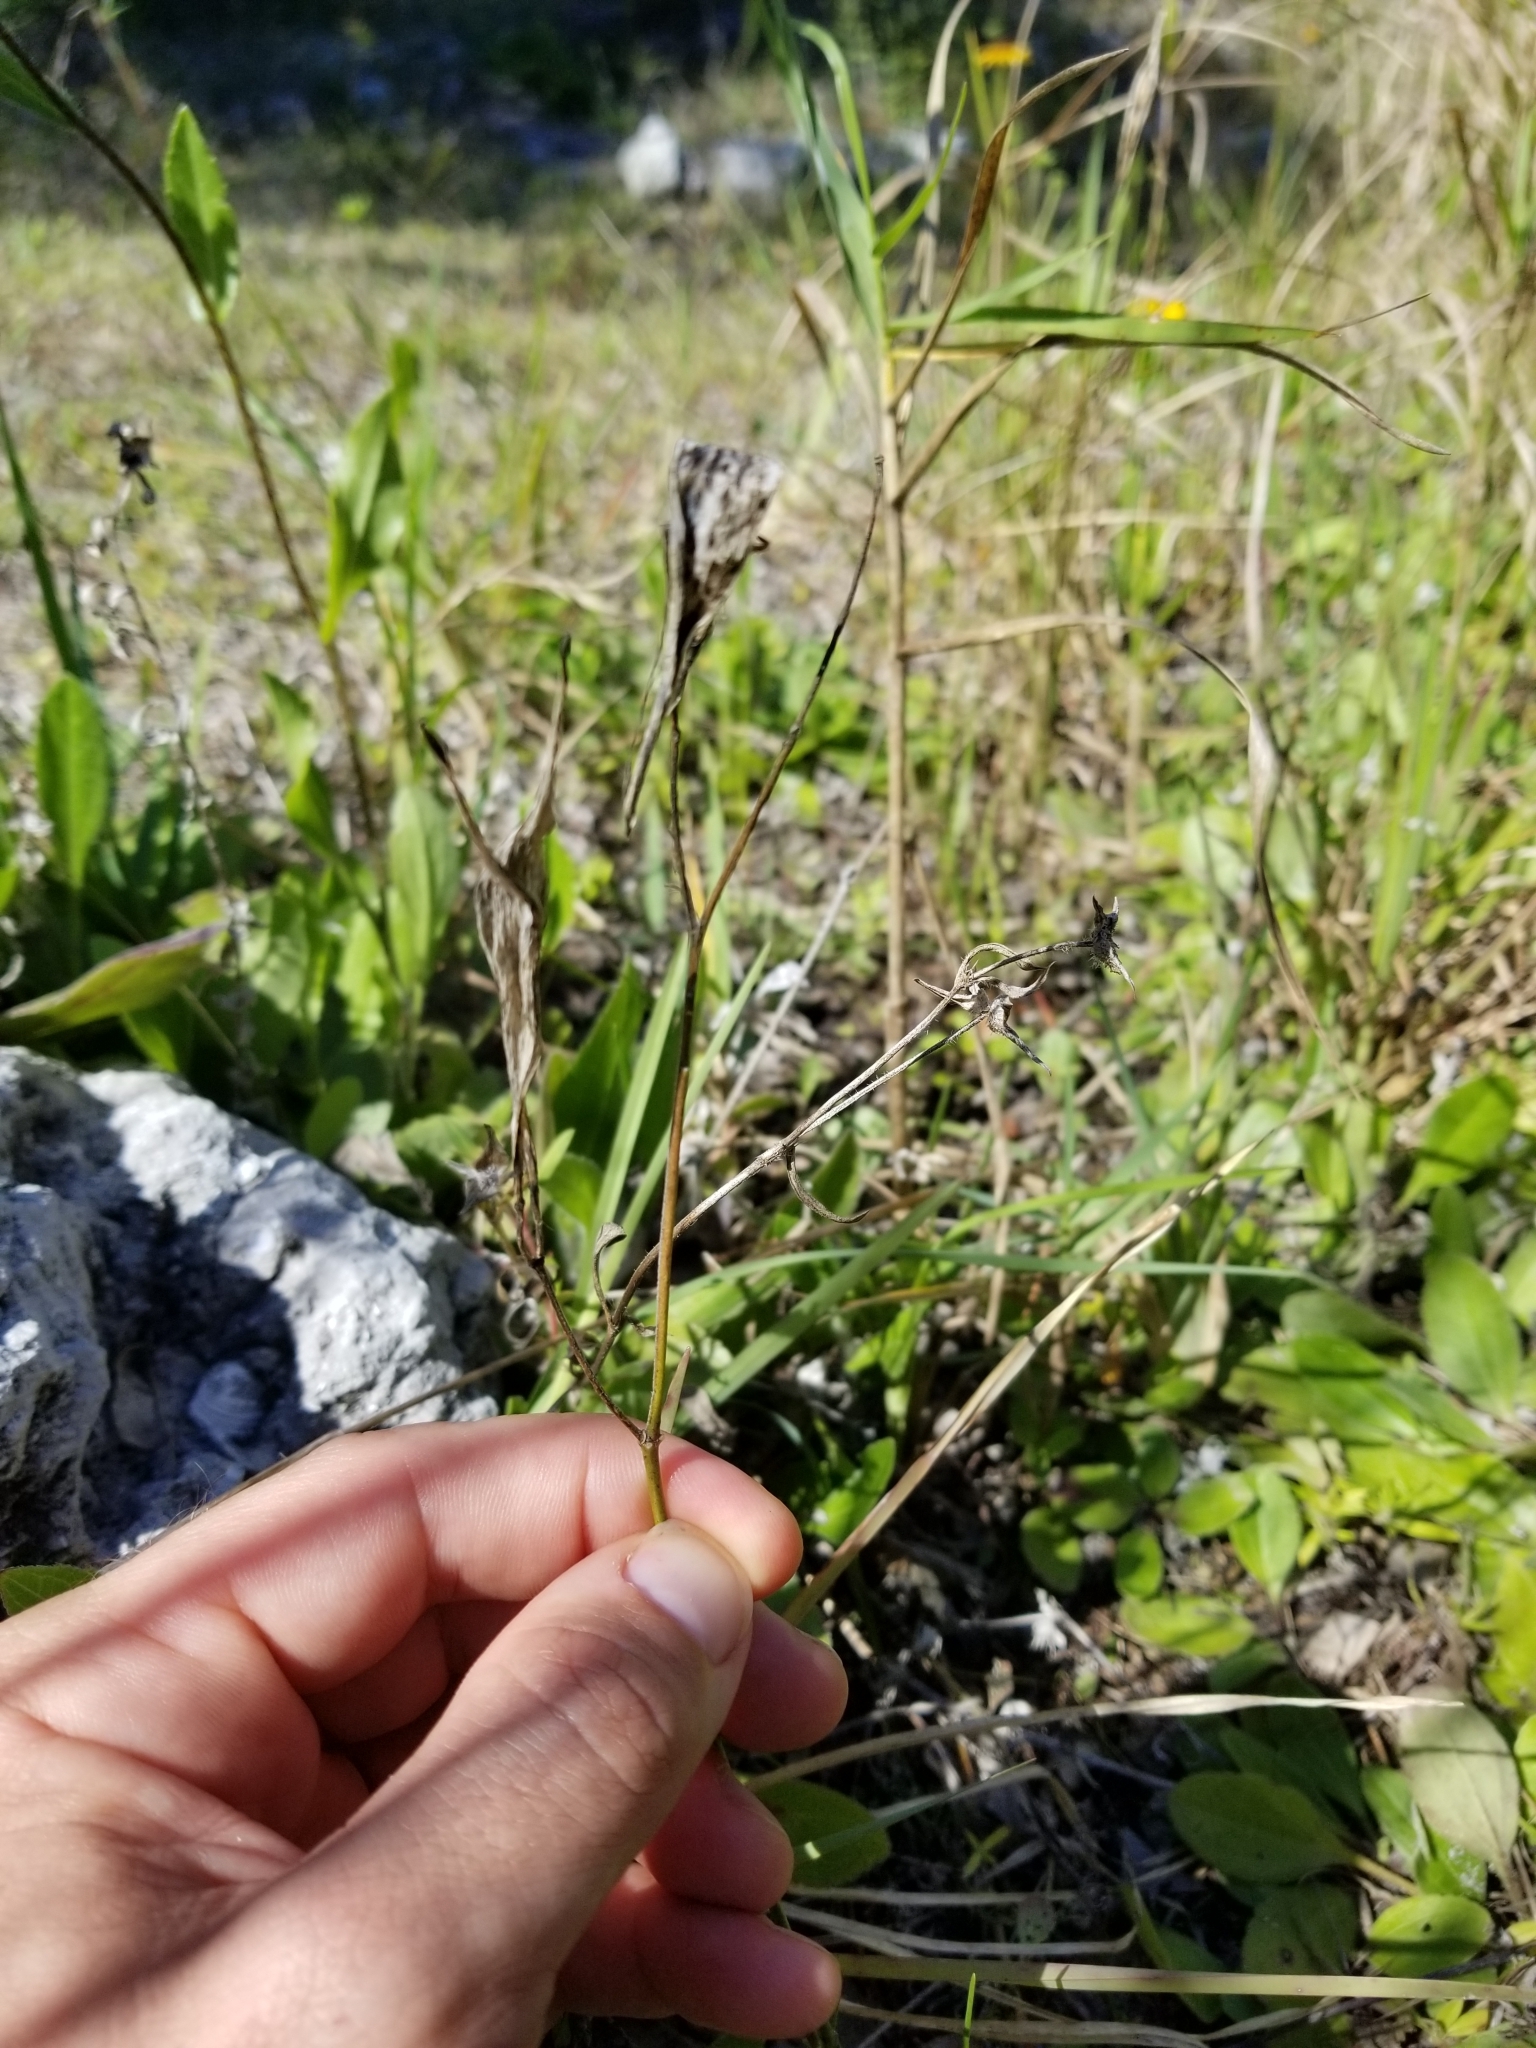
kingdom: Plantae
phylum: Tracheophyta
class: Magnoliopsida
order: Gentianales
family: Apocynaceae
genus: Asclepias
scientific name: Asclepias verticillata
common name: Eastern whorled milkweed
